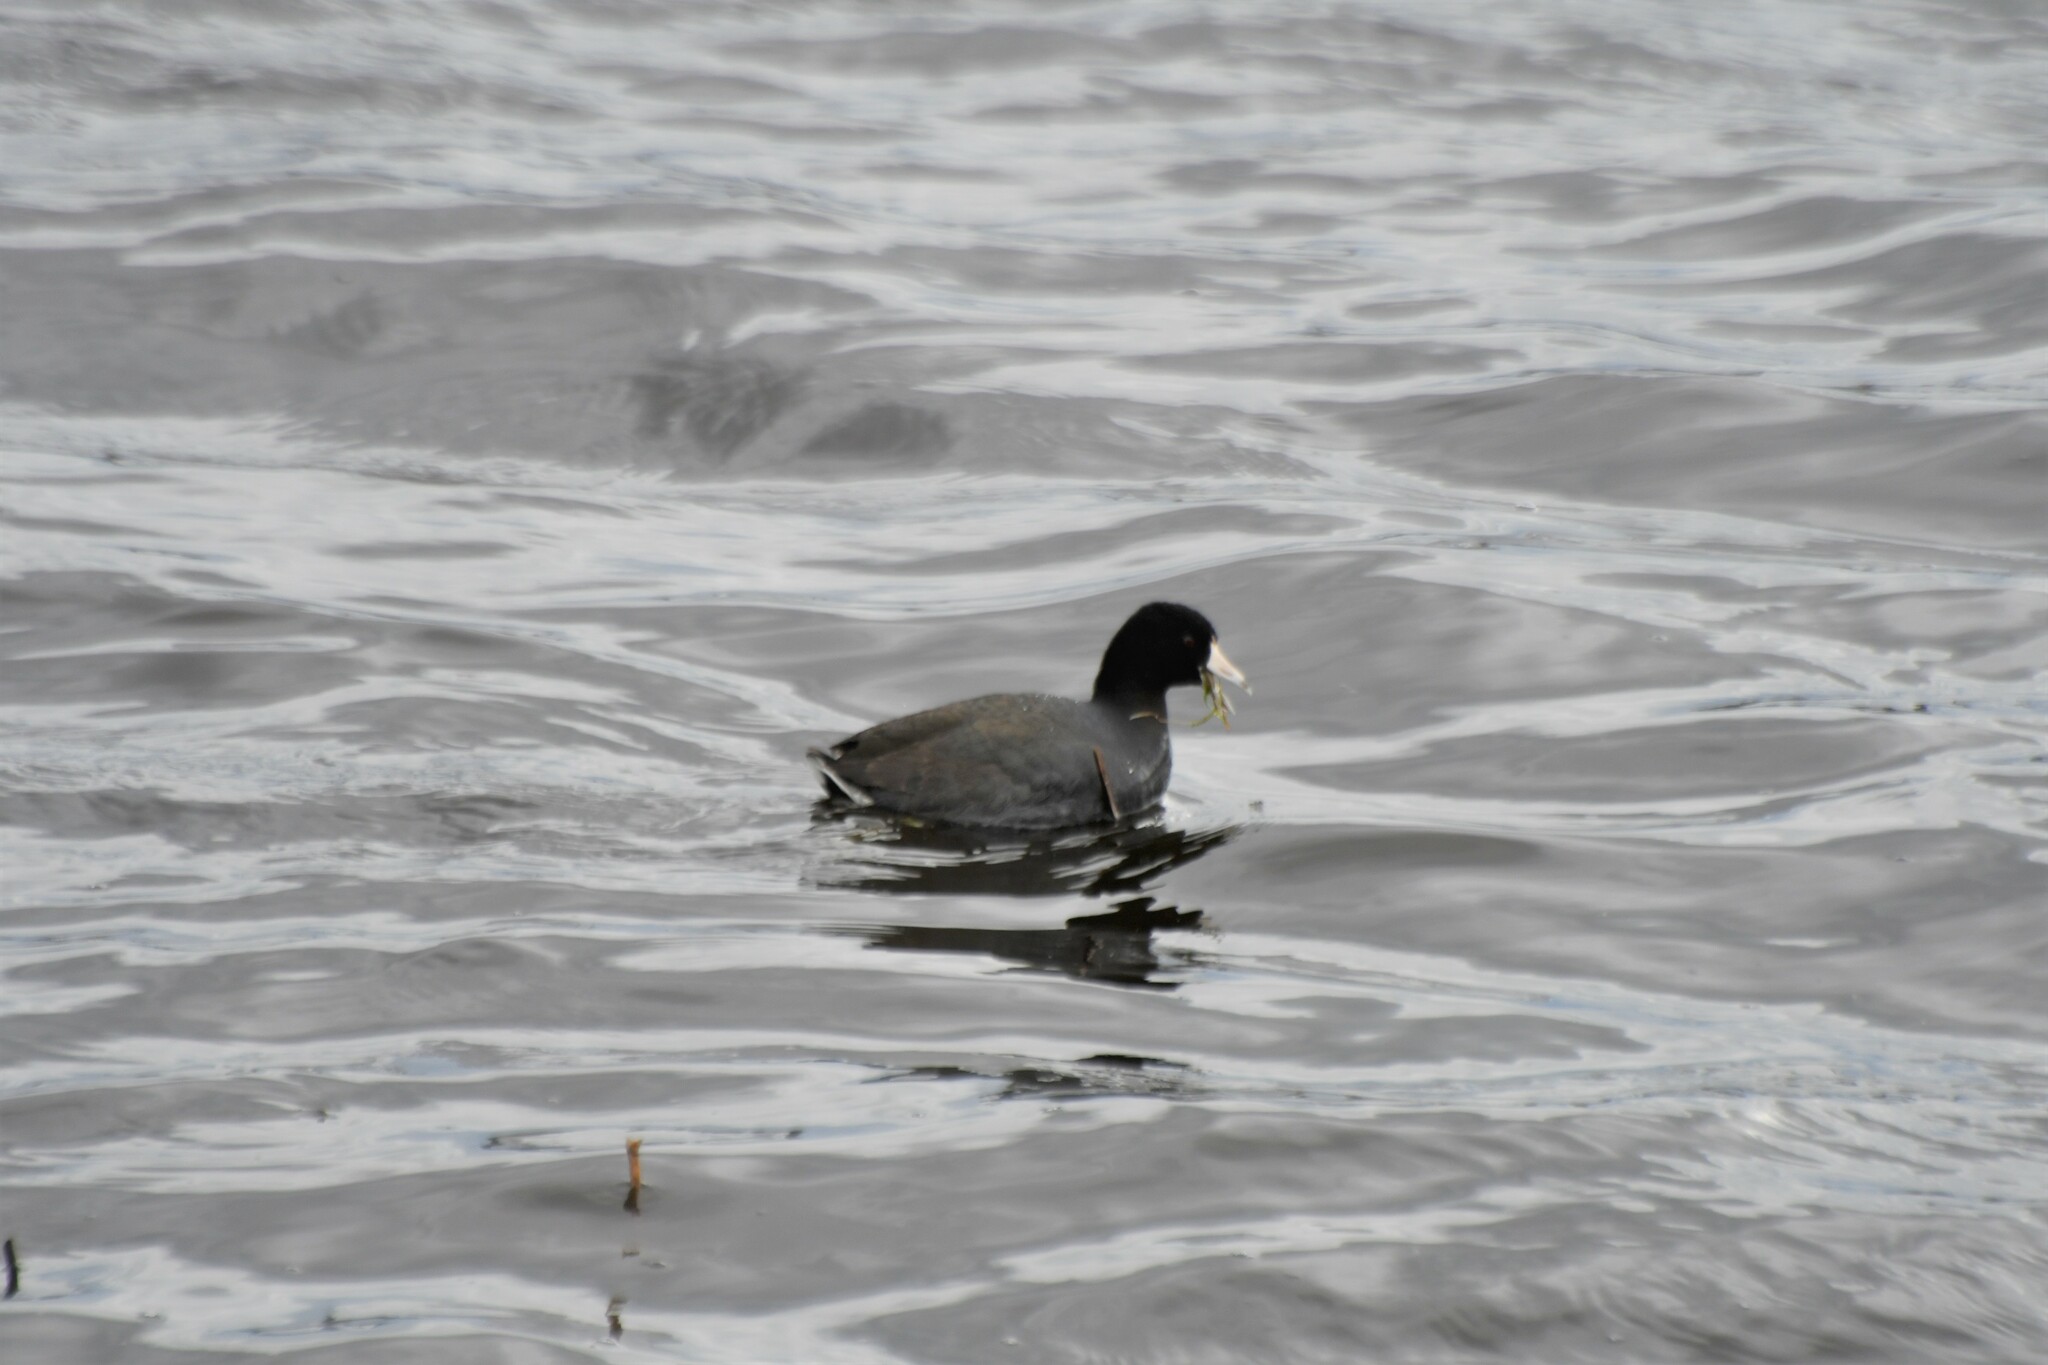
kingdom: Animalia
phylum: Chordata
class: Aves
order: Gruiformes
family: Rallidae
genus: Fulica
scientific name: Fulica americana
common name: American coot
